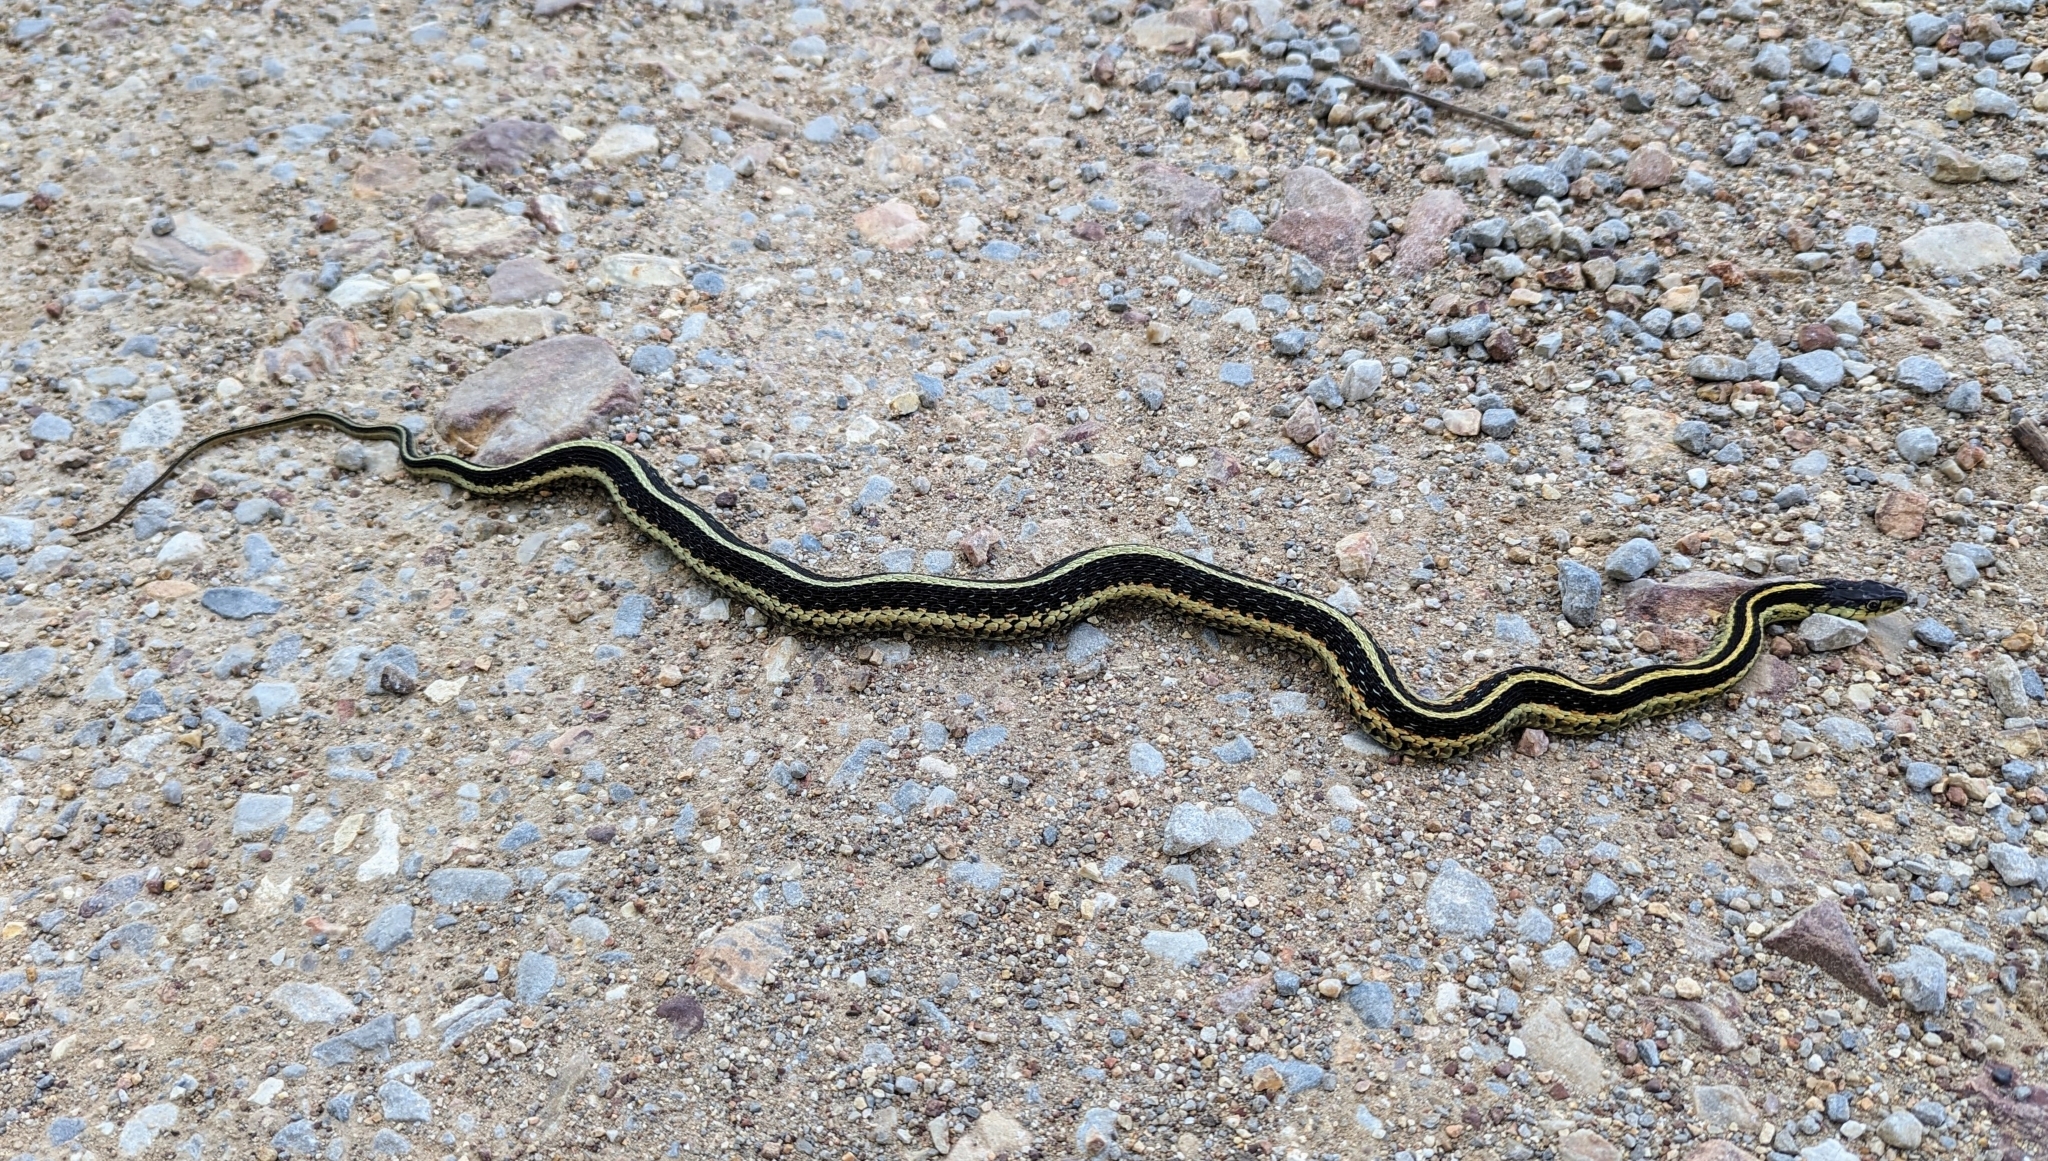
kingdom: Animalia
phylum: Chordata
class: Squamata
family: Colubridae
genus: Thamnophis
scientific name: Thamnophis sirtalis
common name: Common garter snake
